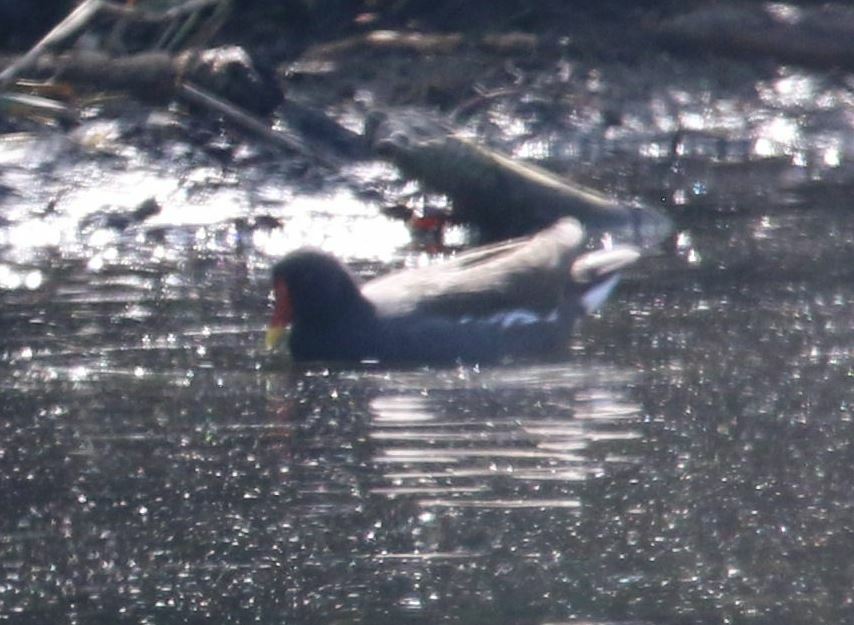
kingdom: Animalia
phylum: Chordata
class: Aves
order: Gruiformes
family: Rallidae
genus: Gallinula
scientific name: Gallinula chloropus
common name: Common moorhen
